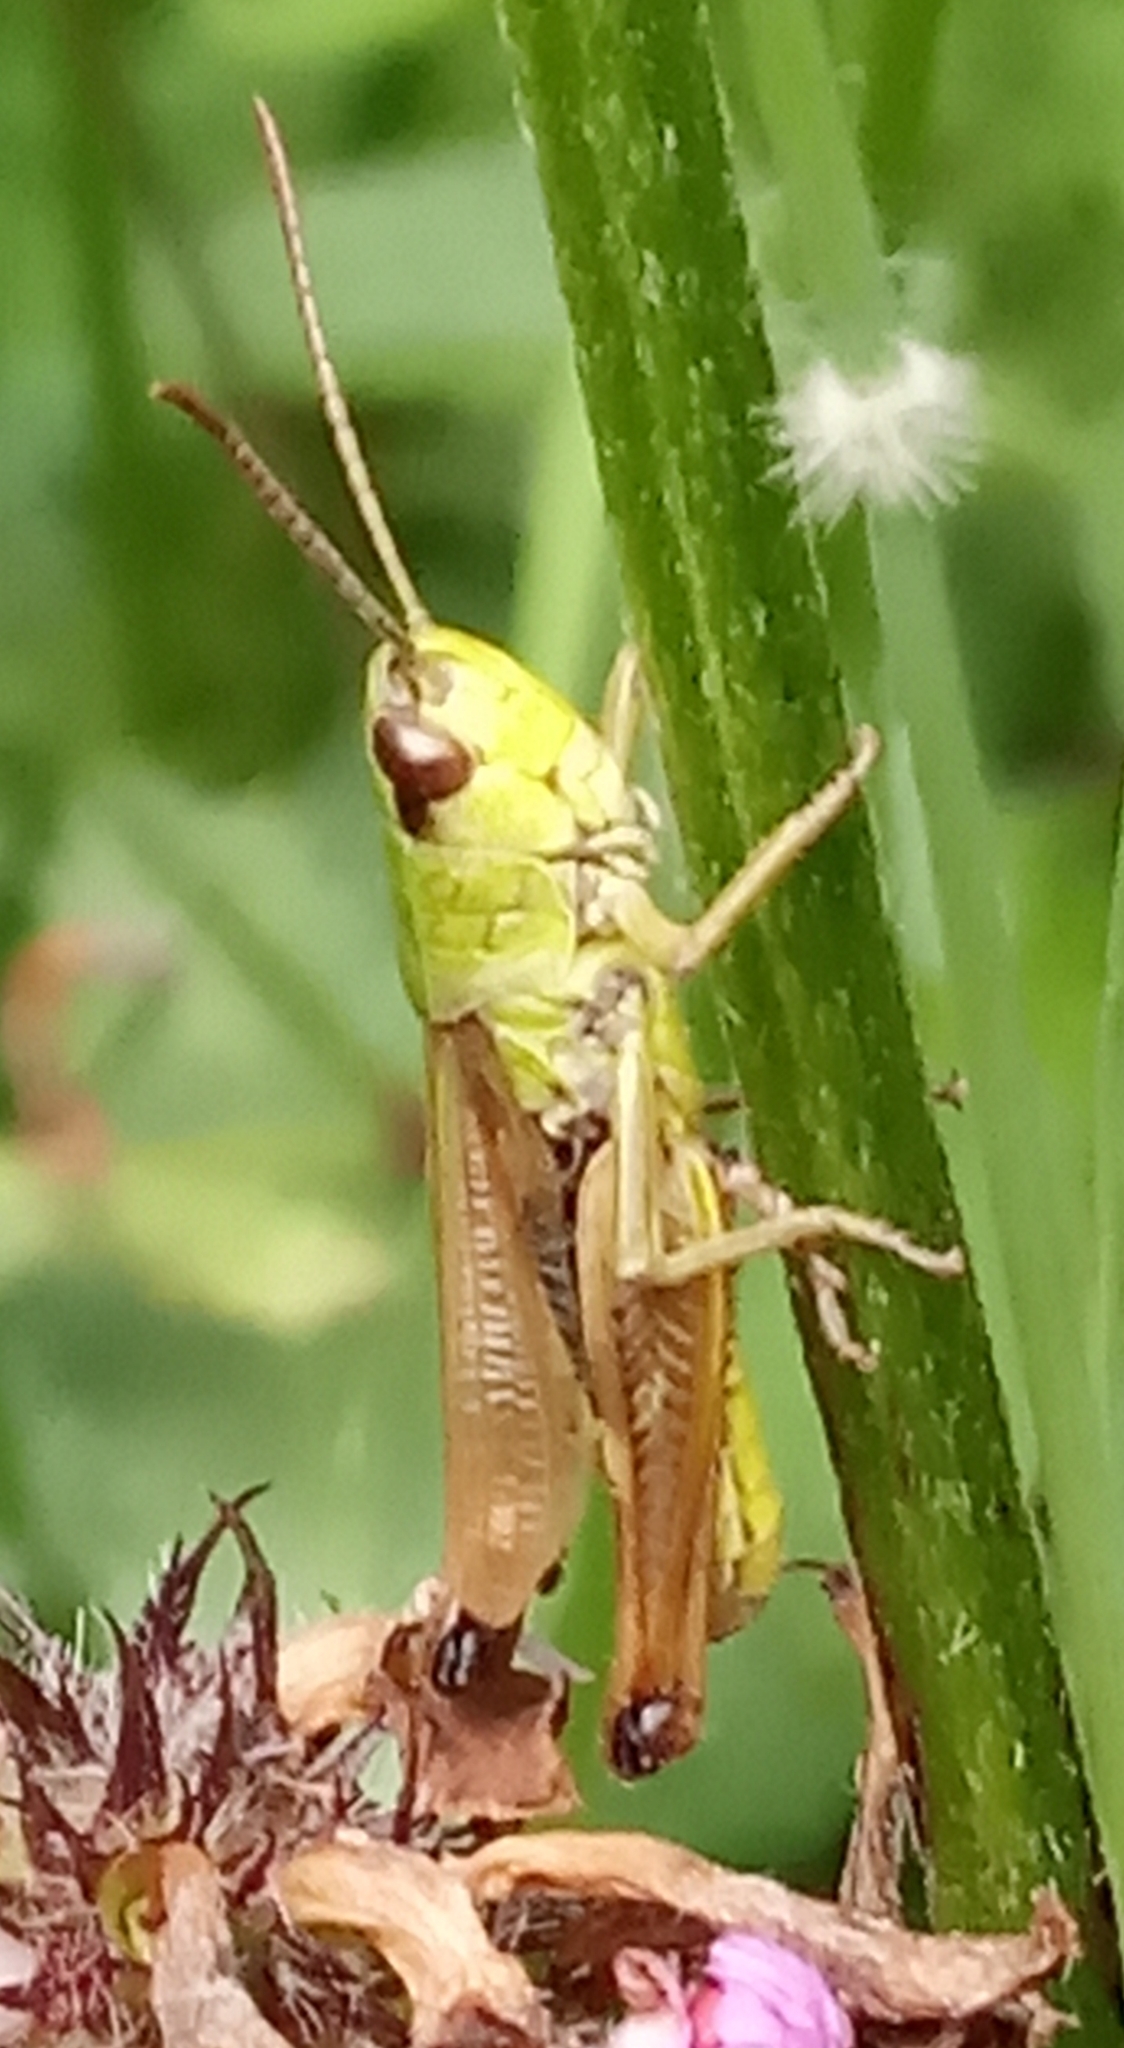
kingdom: Animalia
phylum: Arthropoda
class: Insecta
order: Orthoptera
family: Acrididae
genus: Pseudochorthippus
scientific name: Pseudochorthippus parallelus
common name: Meadow grasshopper
